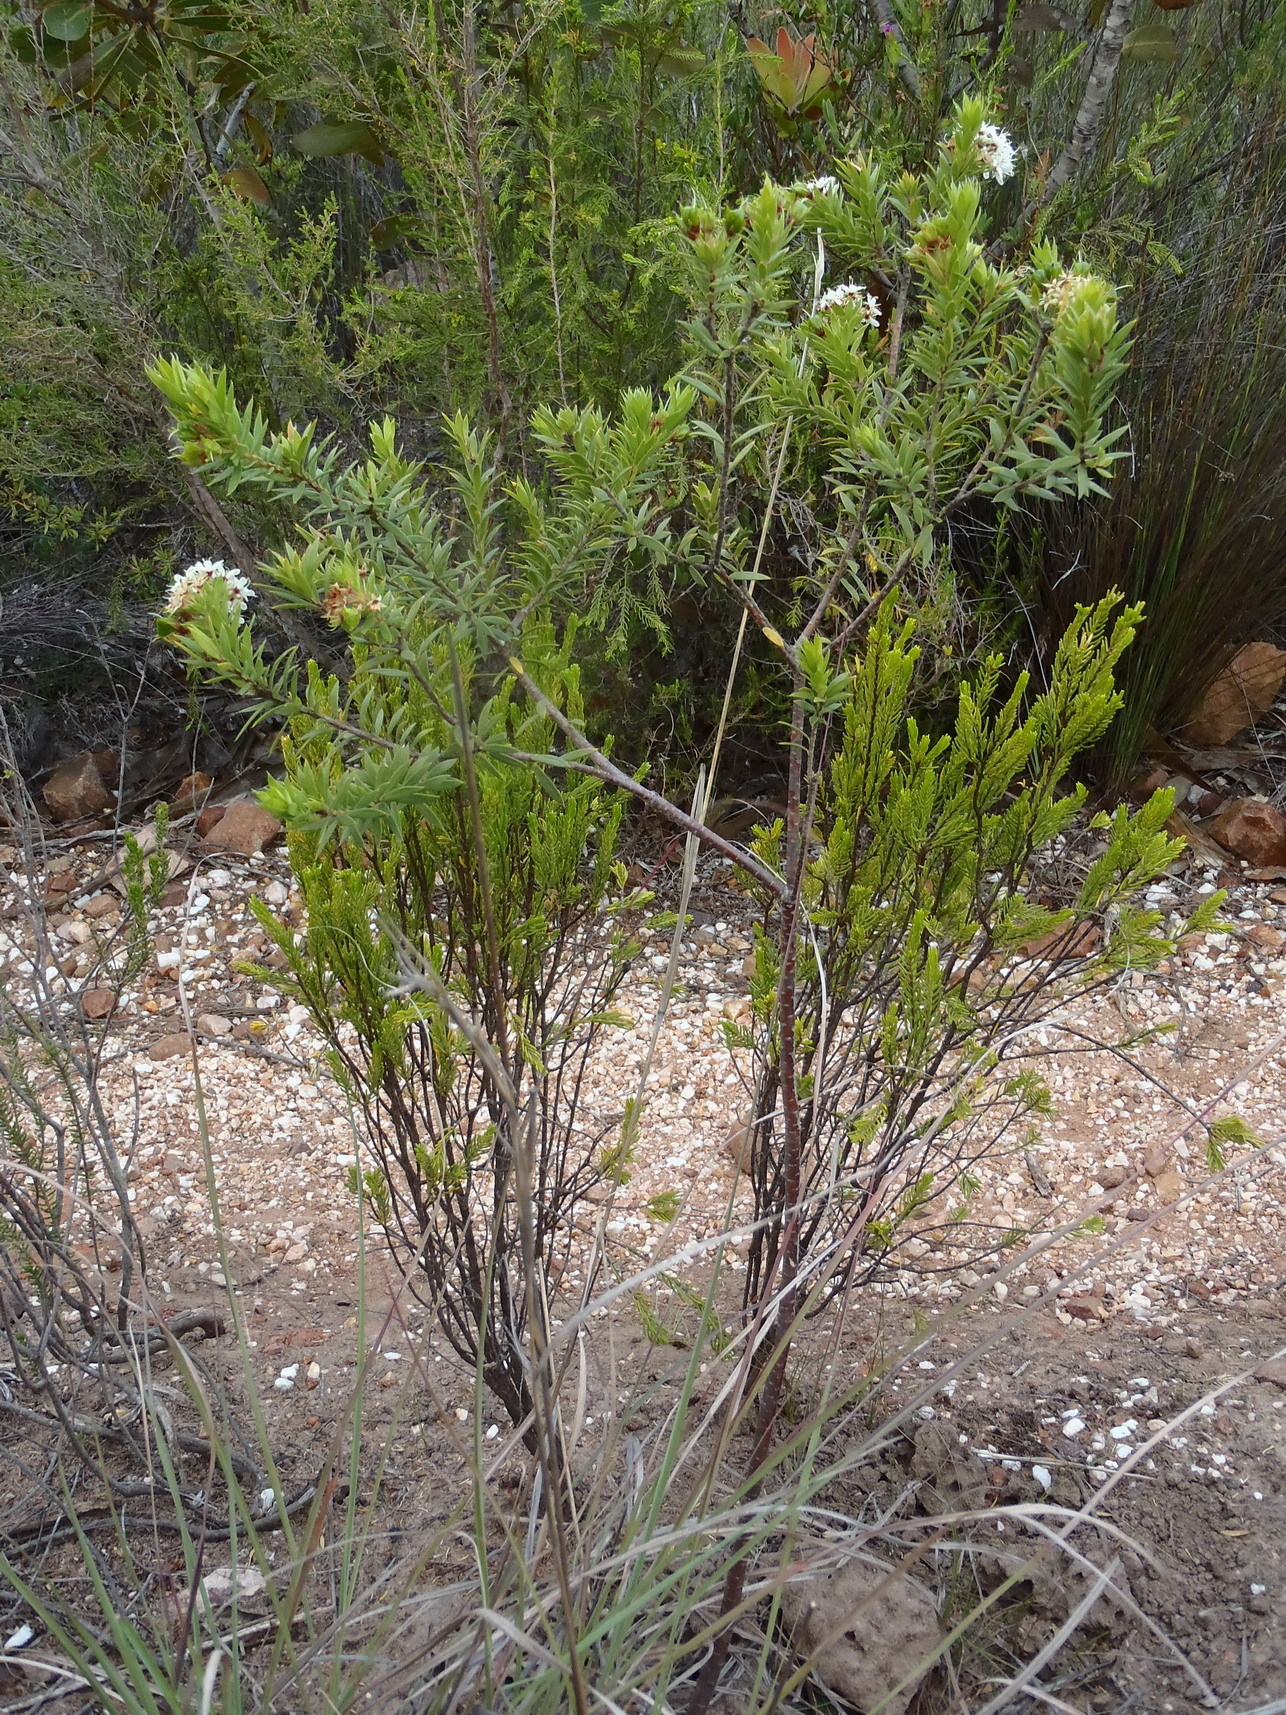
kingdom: Plantae
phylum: Tracheophyta
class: Magnoliopsida
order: Sapindales
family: Rutaceae
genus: Agathosma
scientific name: Agathosma puberula
